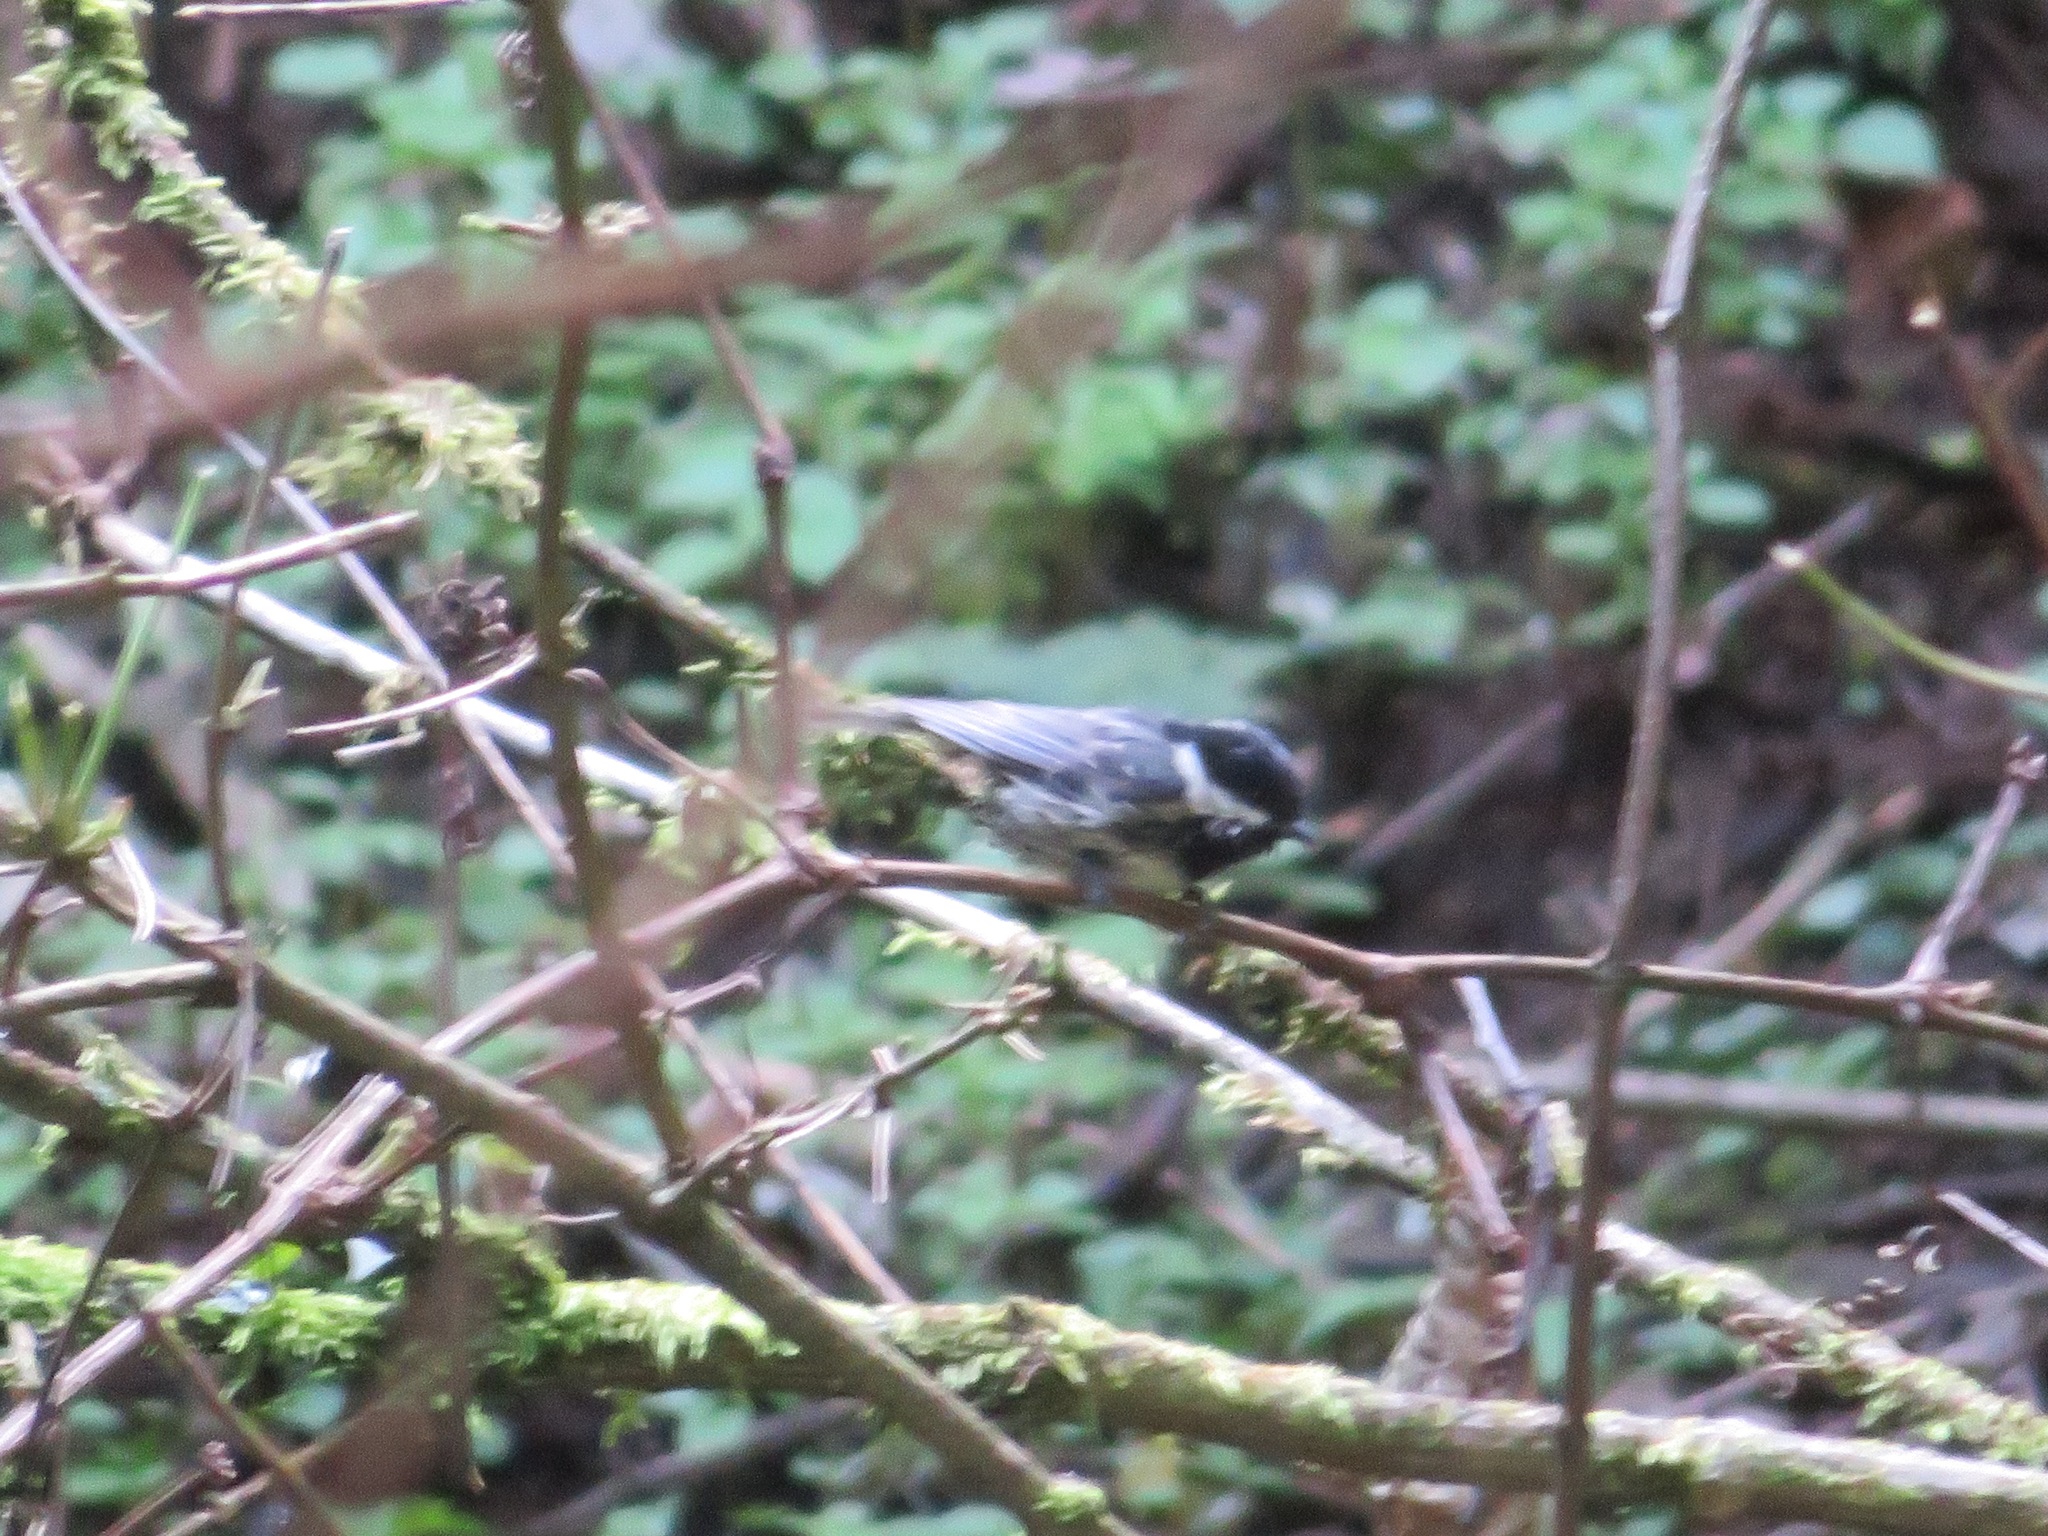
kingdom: Animalia
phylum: Chordata
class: Aves
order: Passeriformes
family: Paridae
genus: Periparus
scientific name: Periparus ater
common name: Coal tit
